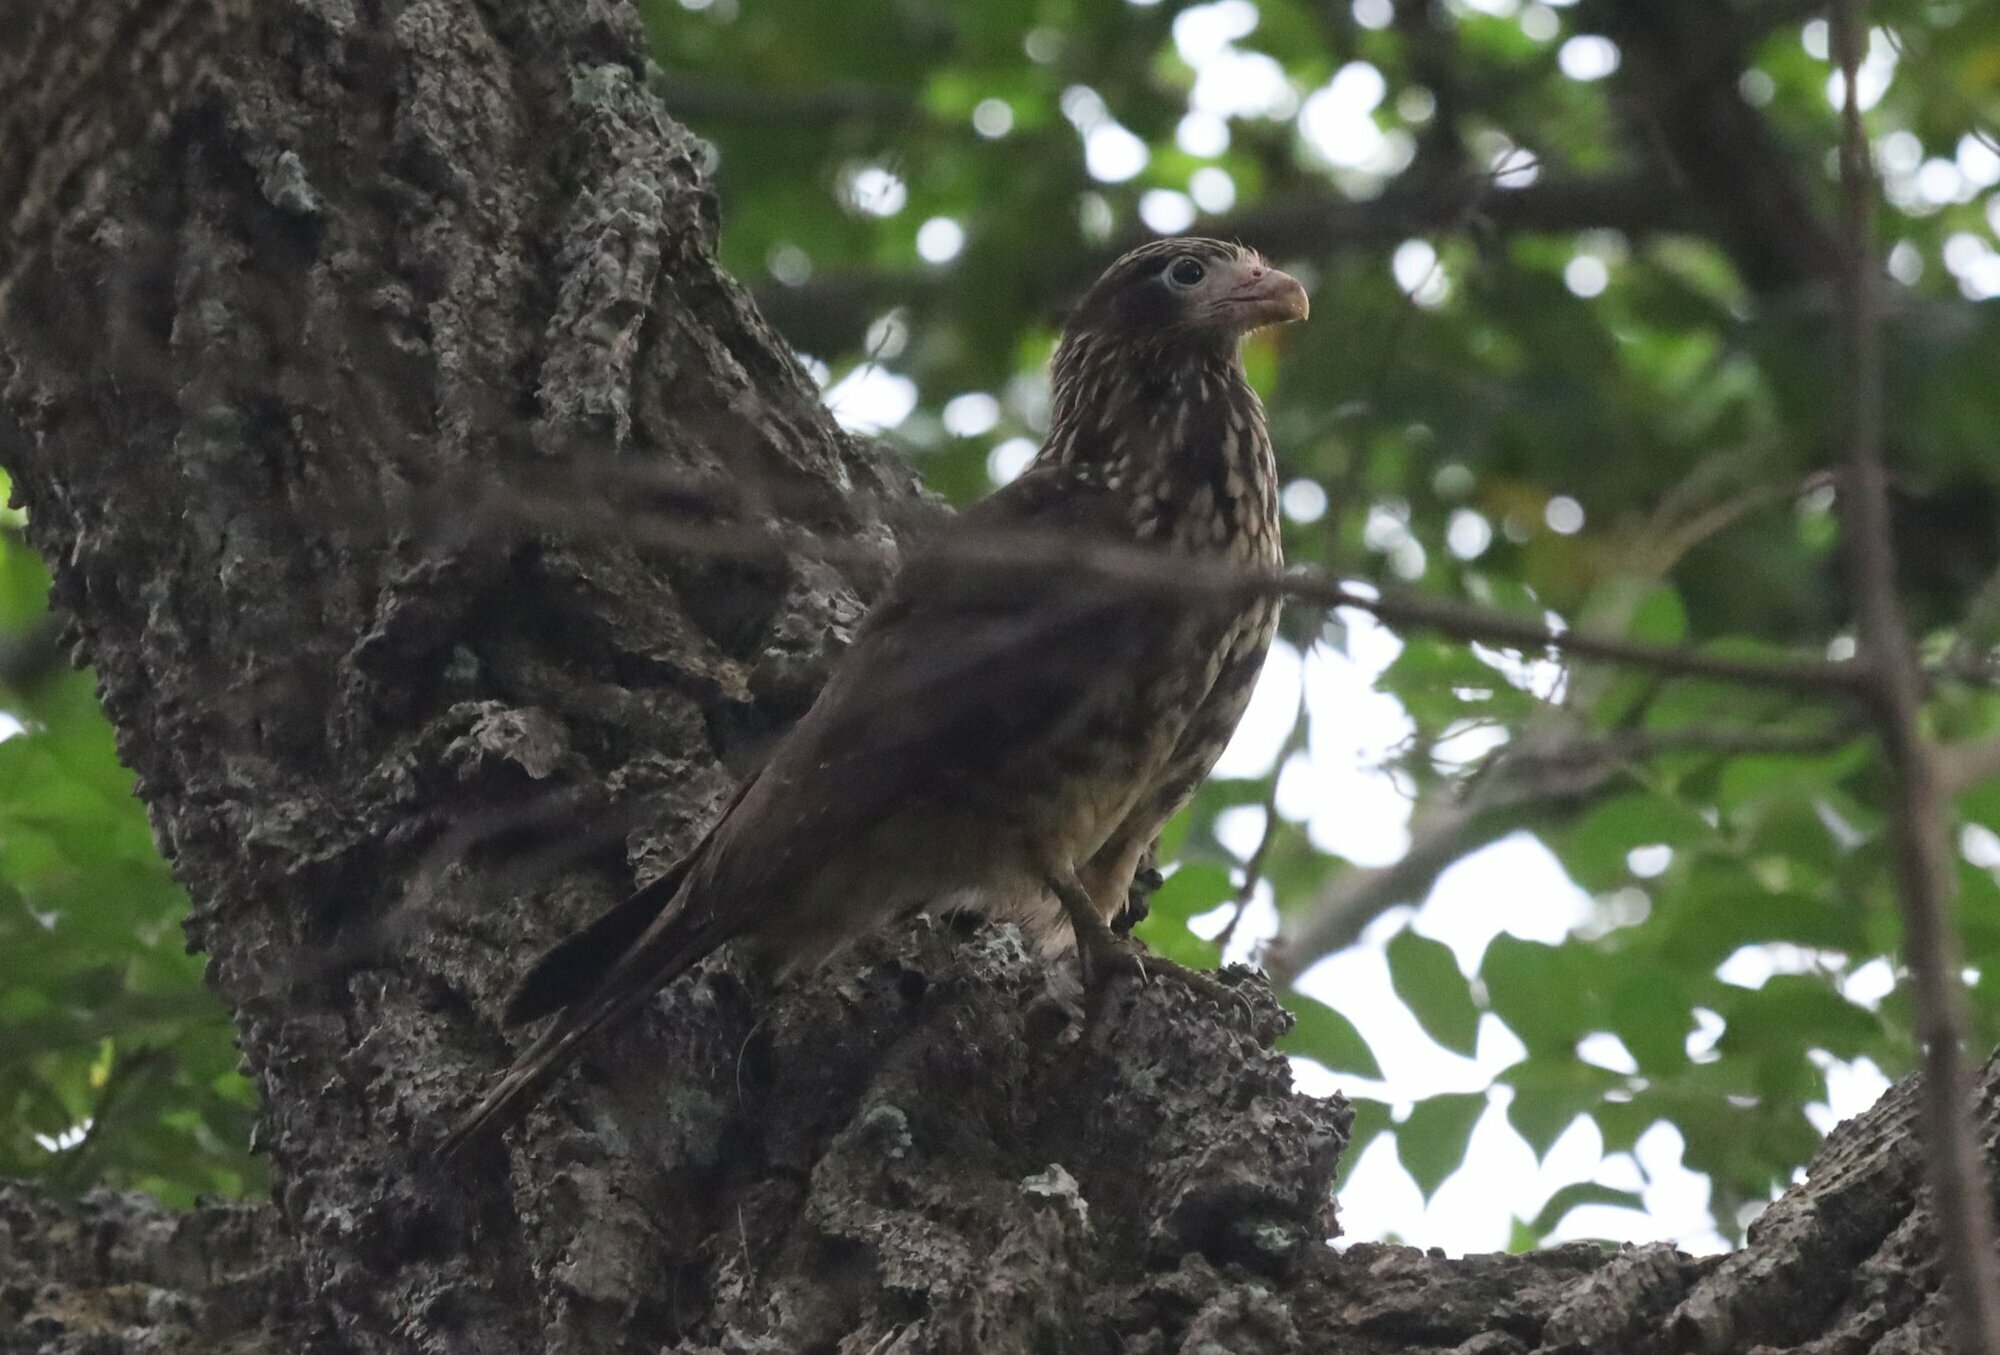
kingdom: Animalia
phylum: Chordata
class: Aves
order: Falconiformes
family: Falconidae
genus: Daptrius
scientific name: Daptrius
